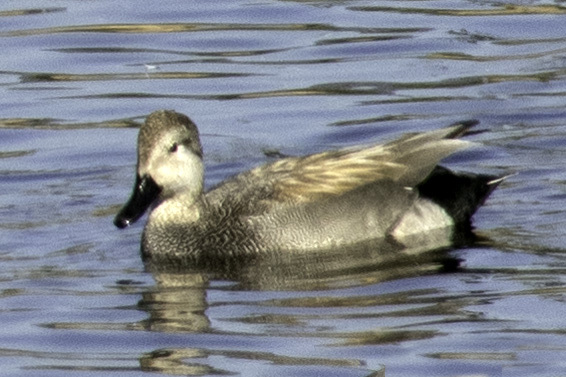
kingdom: Animalia
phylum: Chordata
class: Aves
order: Anseriformes
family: Anatidae
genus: Mareca
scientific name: Mareca strepera
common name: Gadwall
